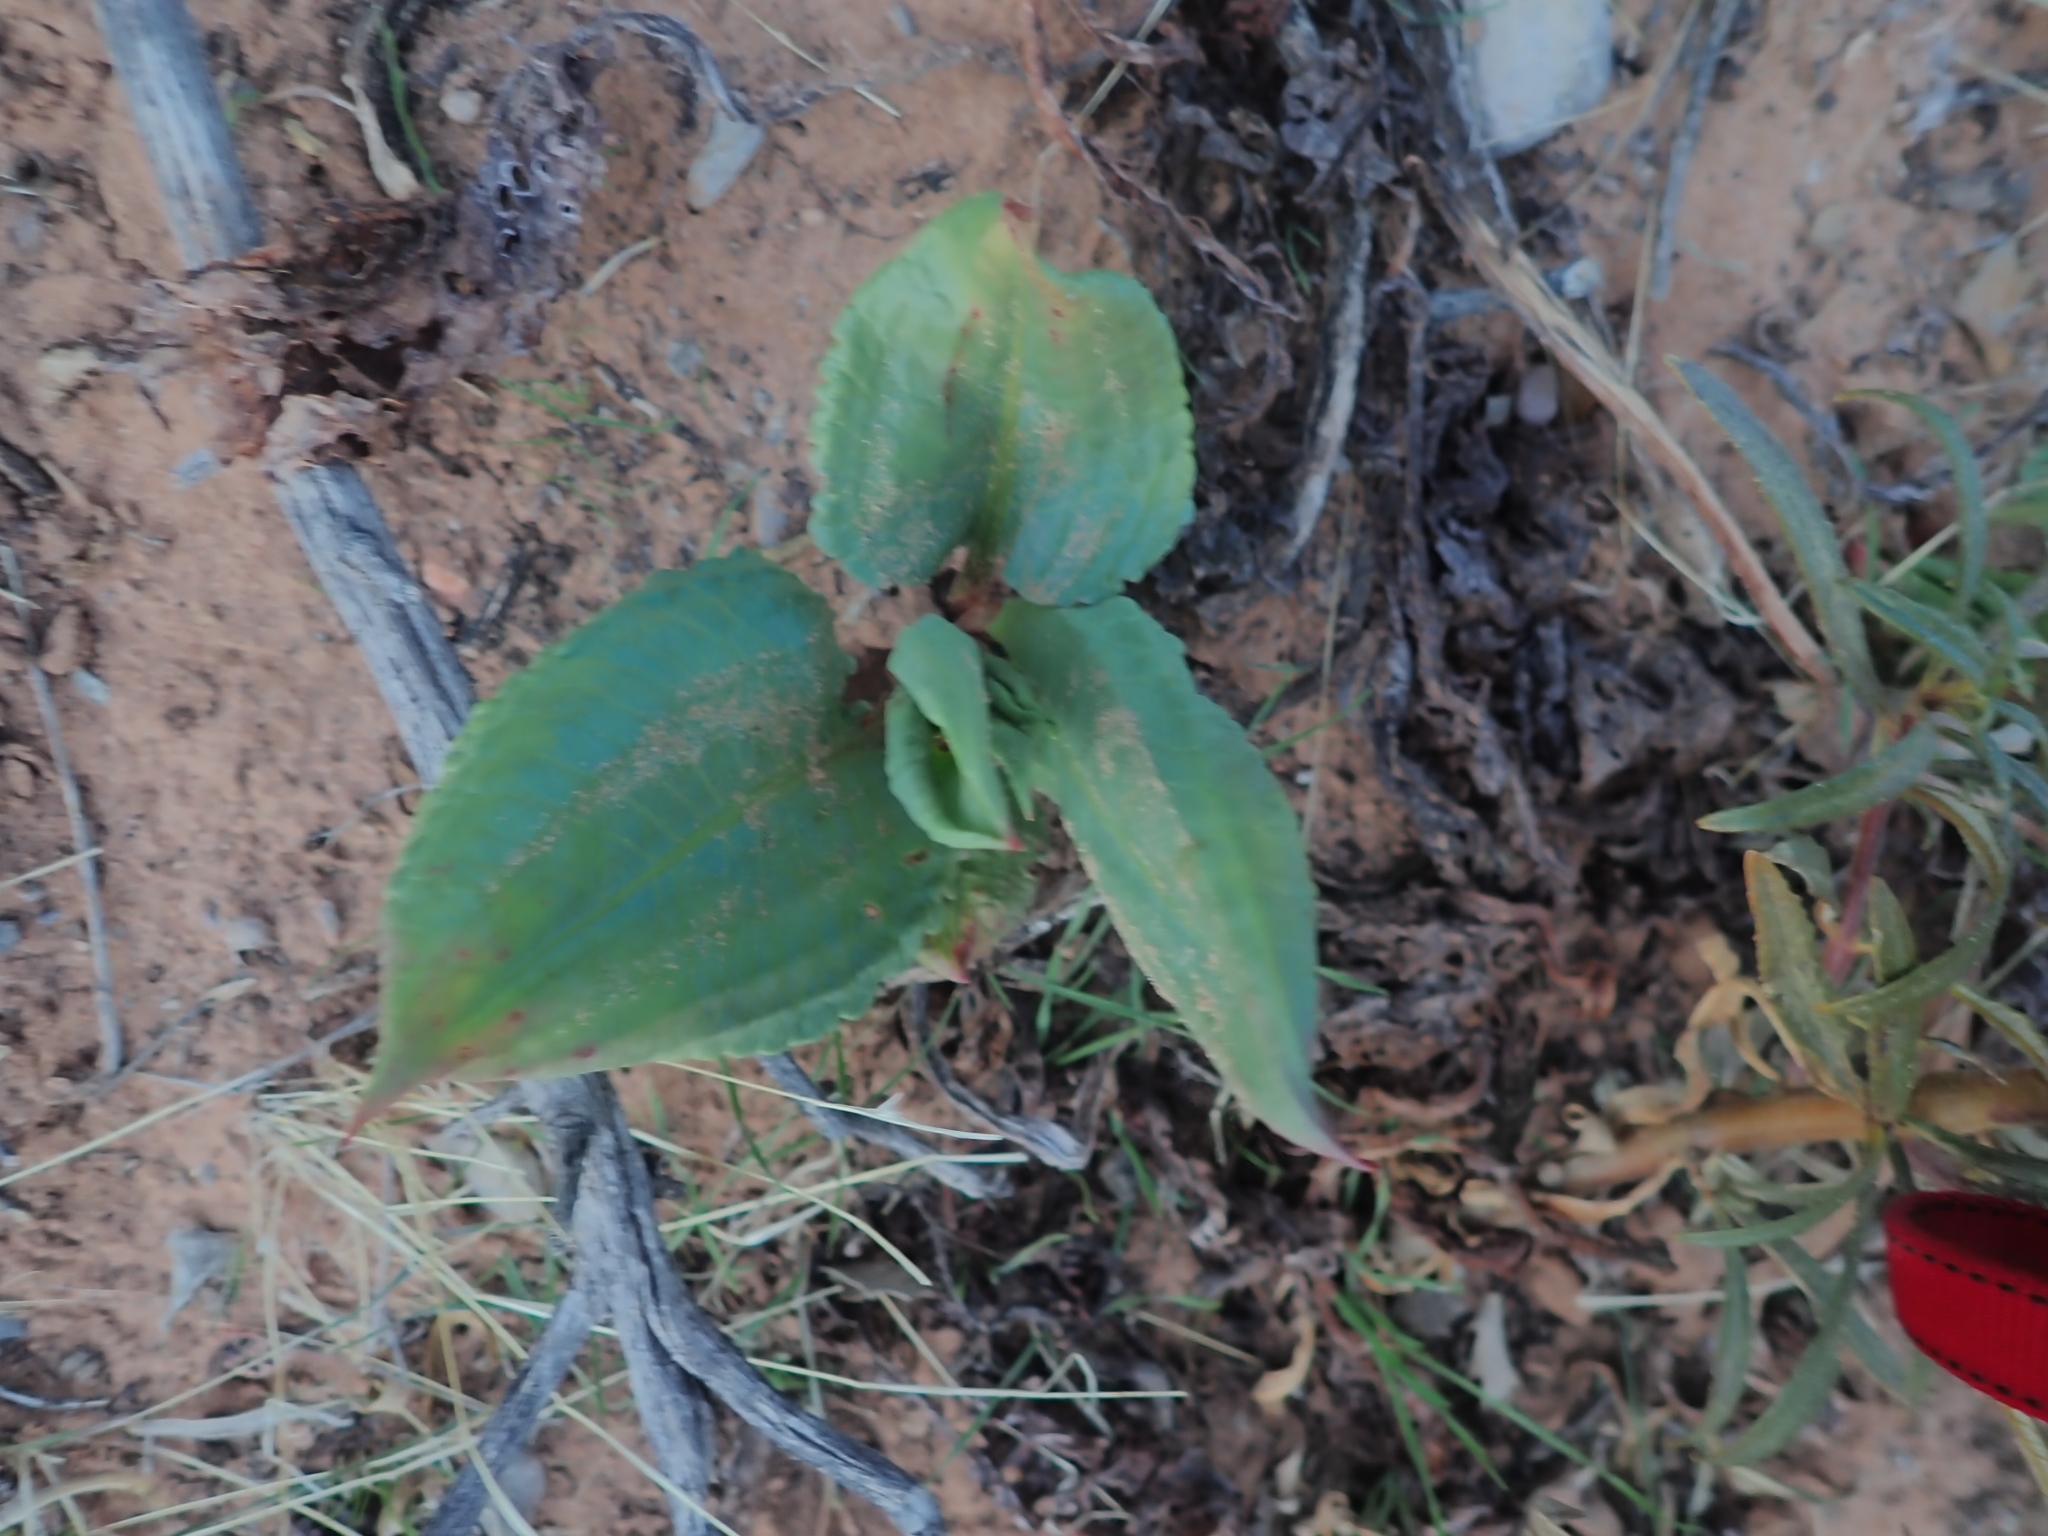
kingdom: Plantae
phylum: Tracheophyta
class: Magnoliopsida
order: Caryophyllales
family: Polygonaceae
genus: Rumex
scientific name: Rumex hymenosepalus
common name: Ganagra
